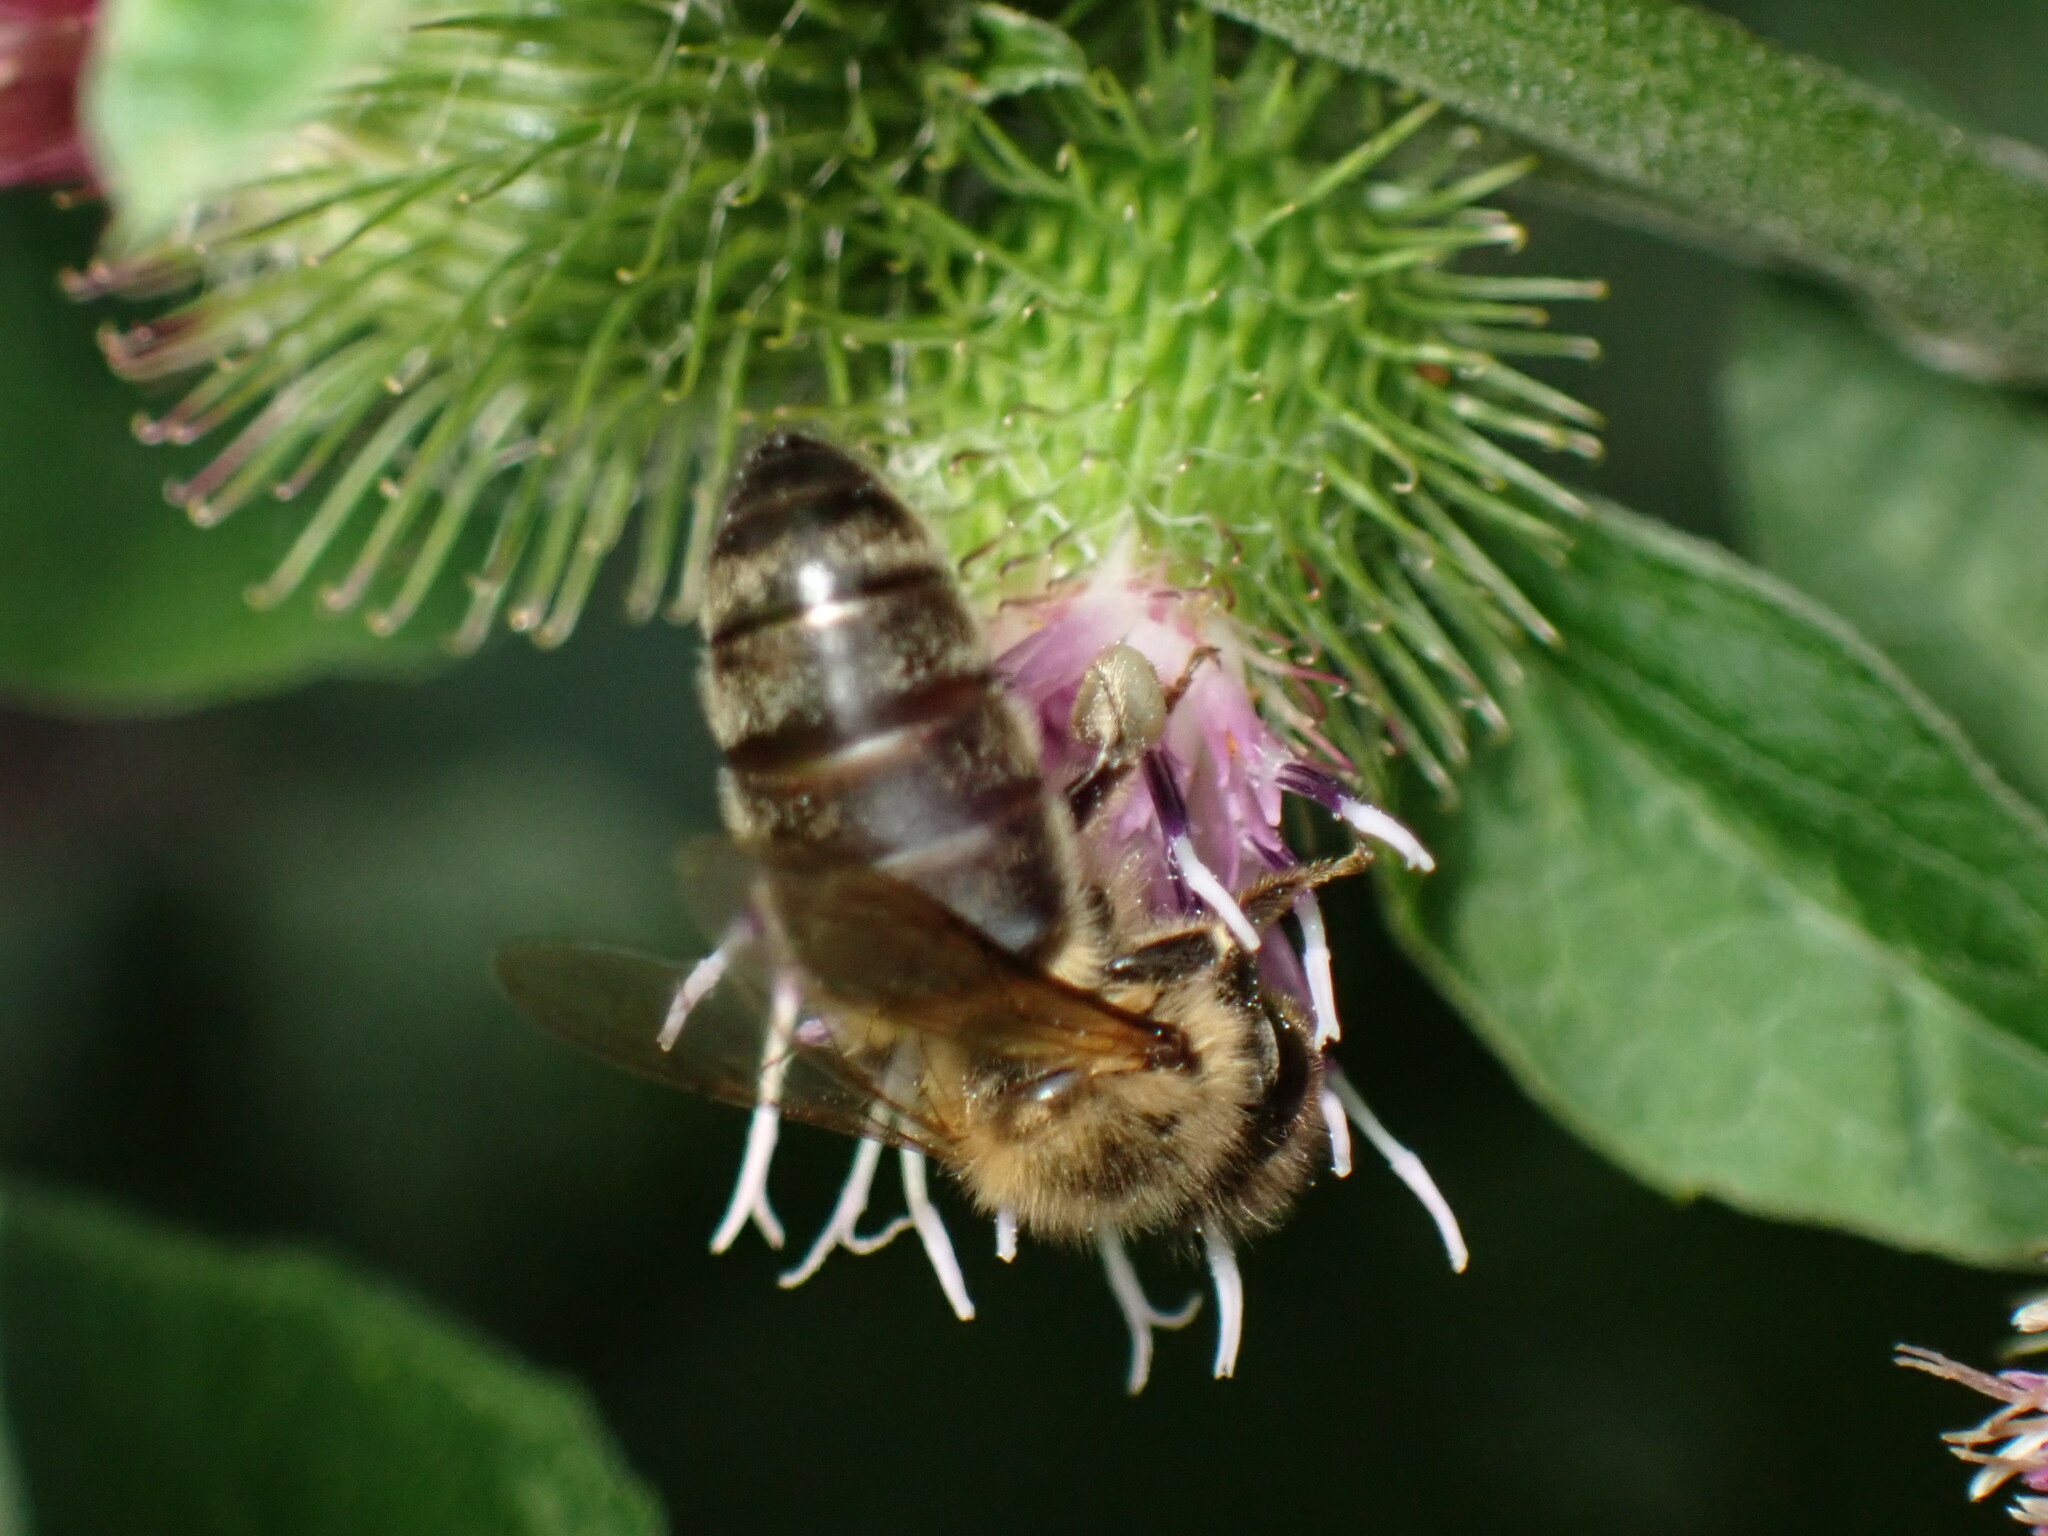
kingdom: Animalia
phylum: Arthropoda
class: Insecta
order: Hymenoptera
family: Apidae
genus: Apis
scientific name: Apis mellifera
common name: Honey bee
